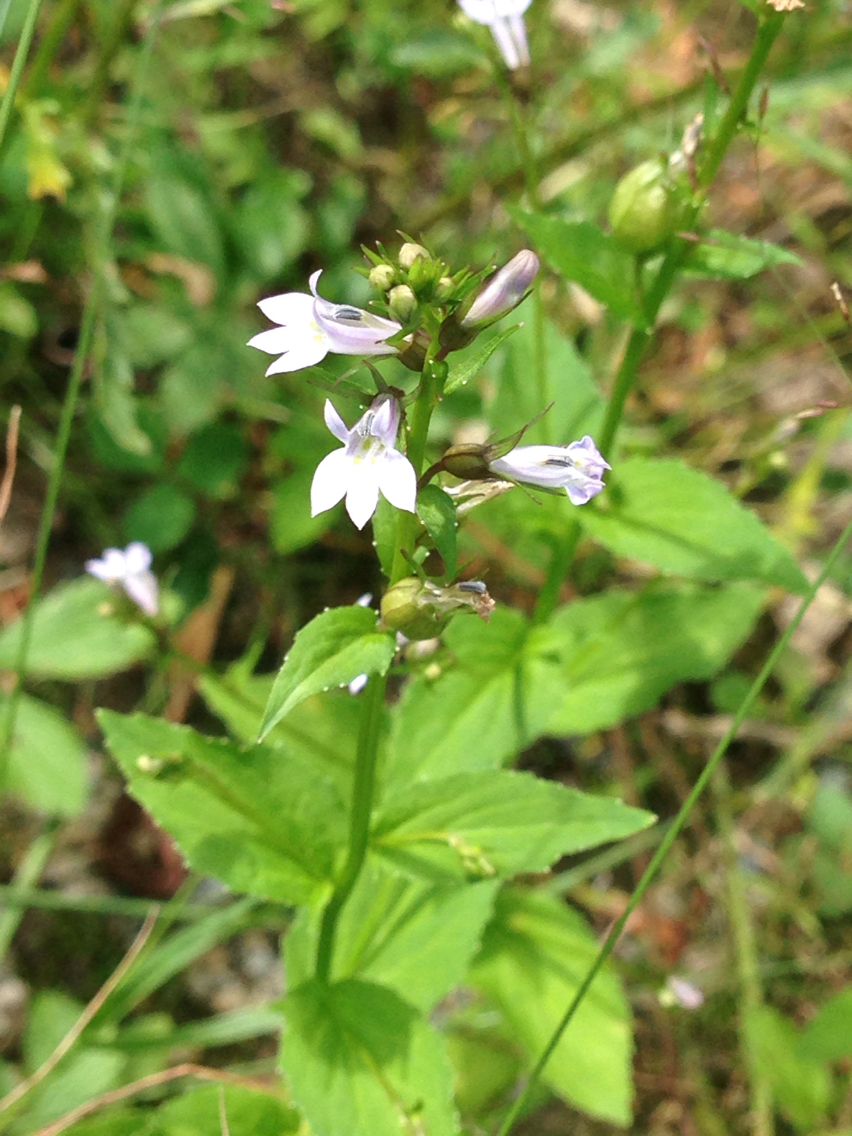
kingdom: Plantae
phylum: Tracheophyta
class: Magnoliopsida
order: Asterales
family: Campanulaceae
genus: Lobelia
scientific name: Lobelia inflata
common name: Indian tobacco
